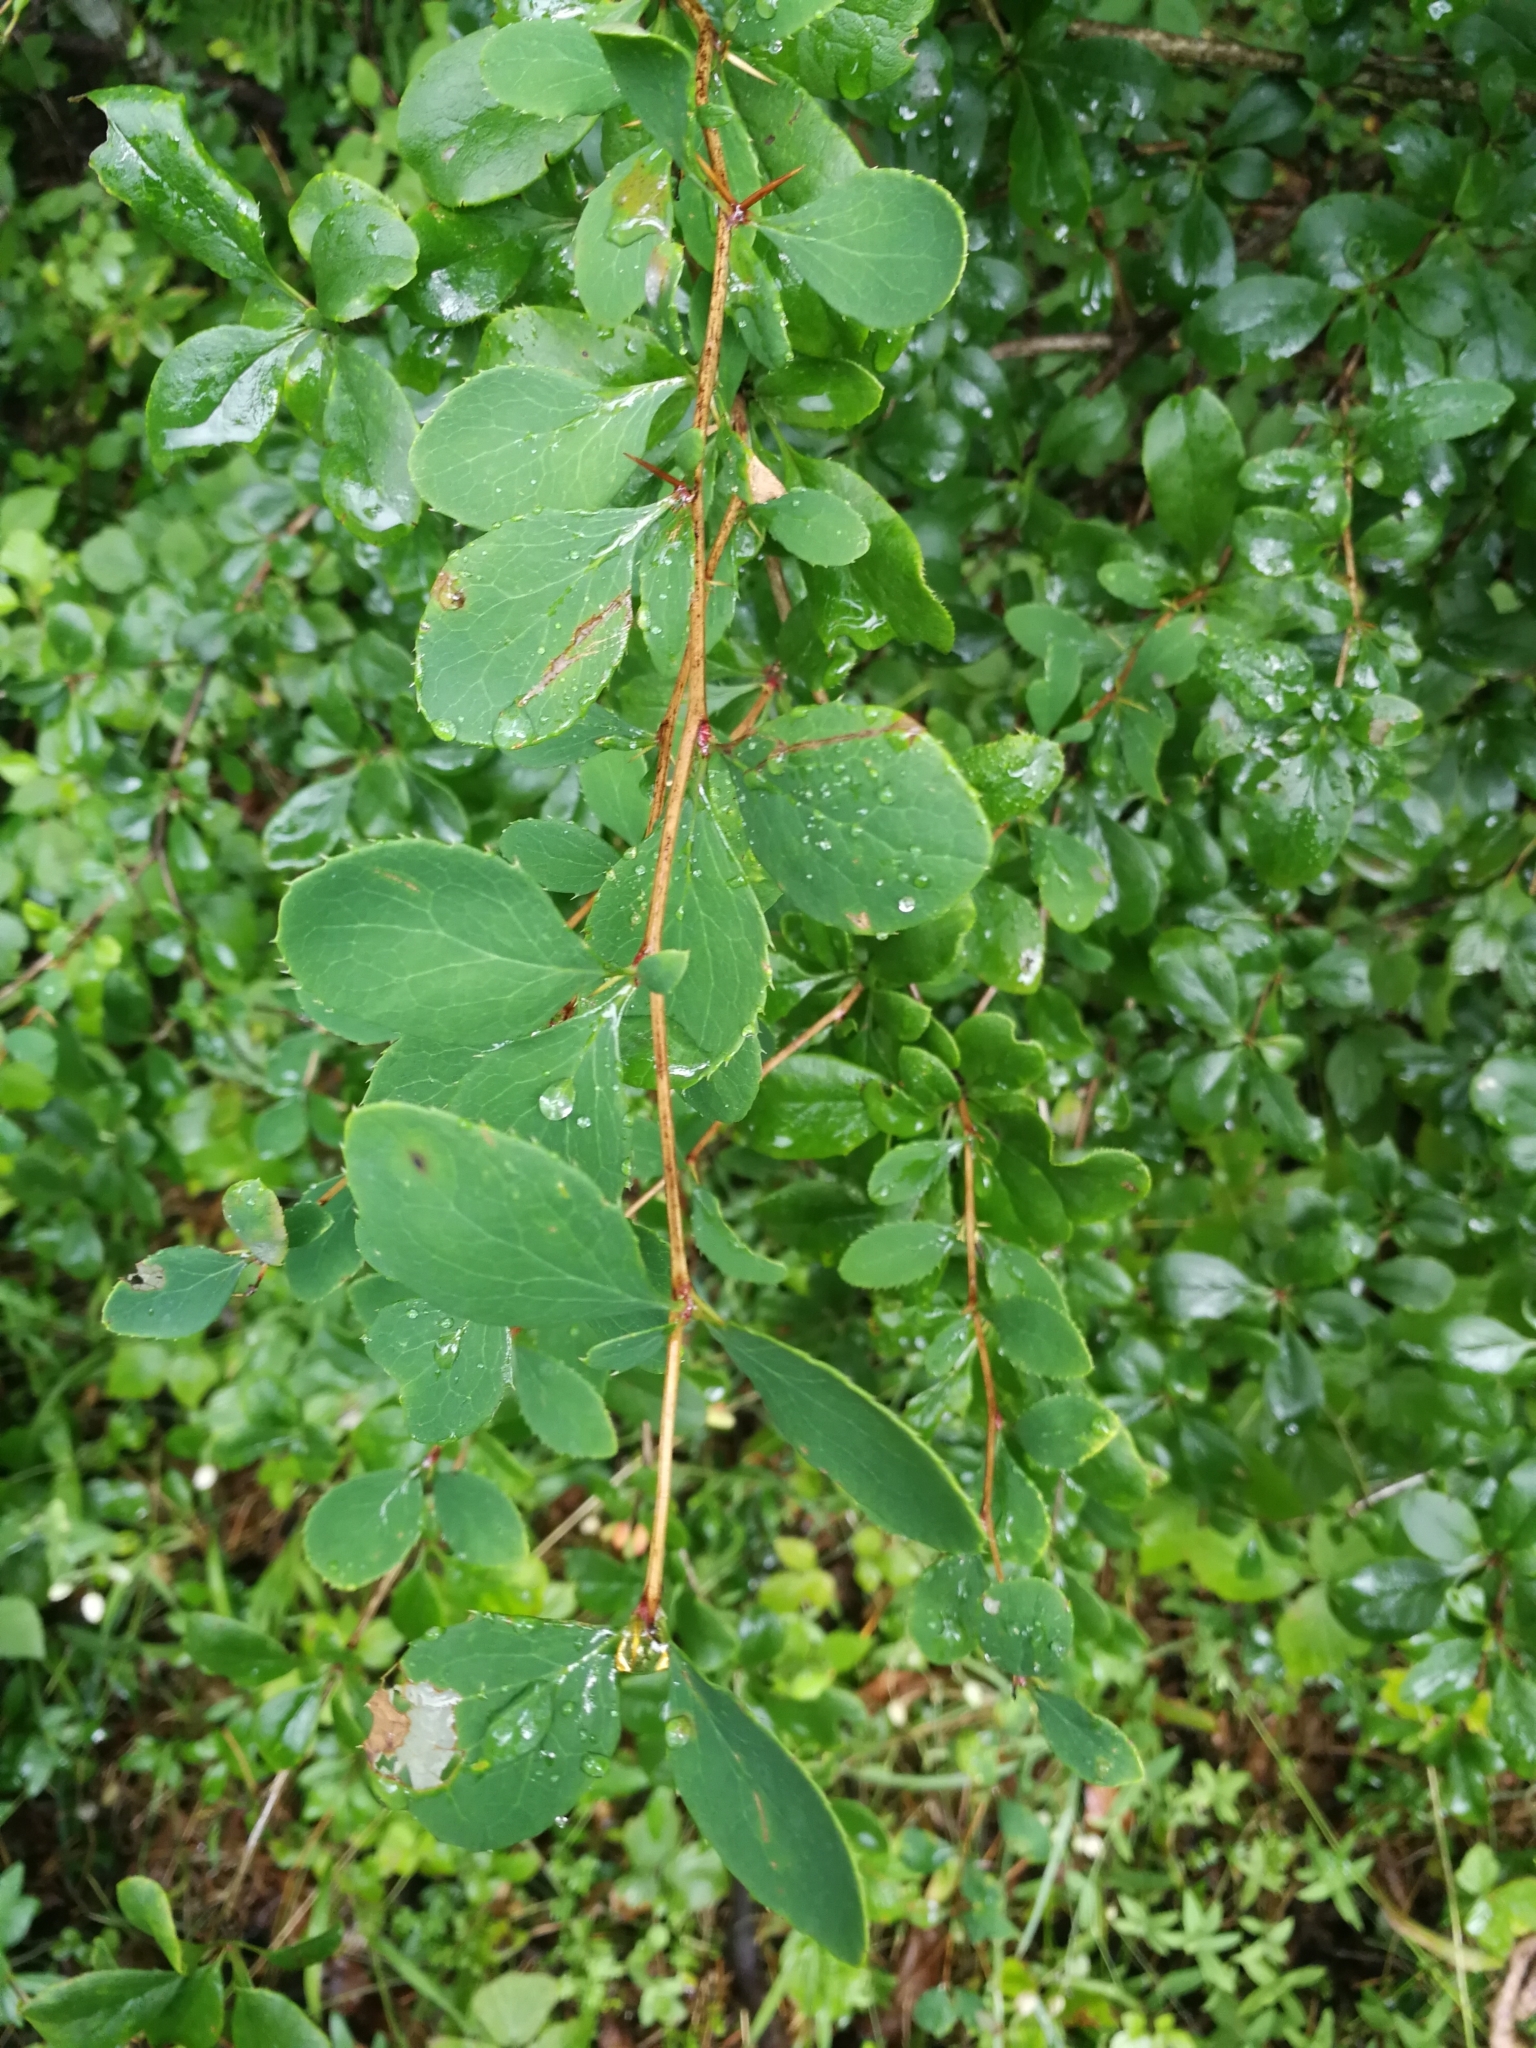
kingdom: Plantae
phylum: Tracheophyta
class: Magnoliopsida
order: Ranunculales
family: Berberidaceae
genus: Berberis
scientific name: Berberis vulgaris
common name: Barberry
